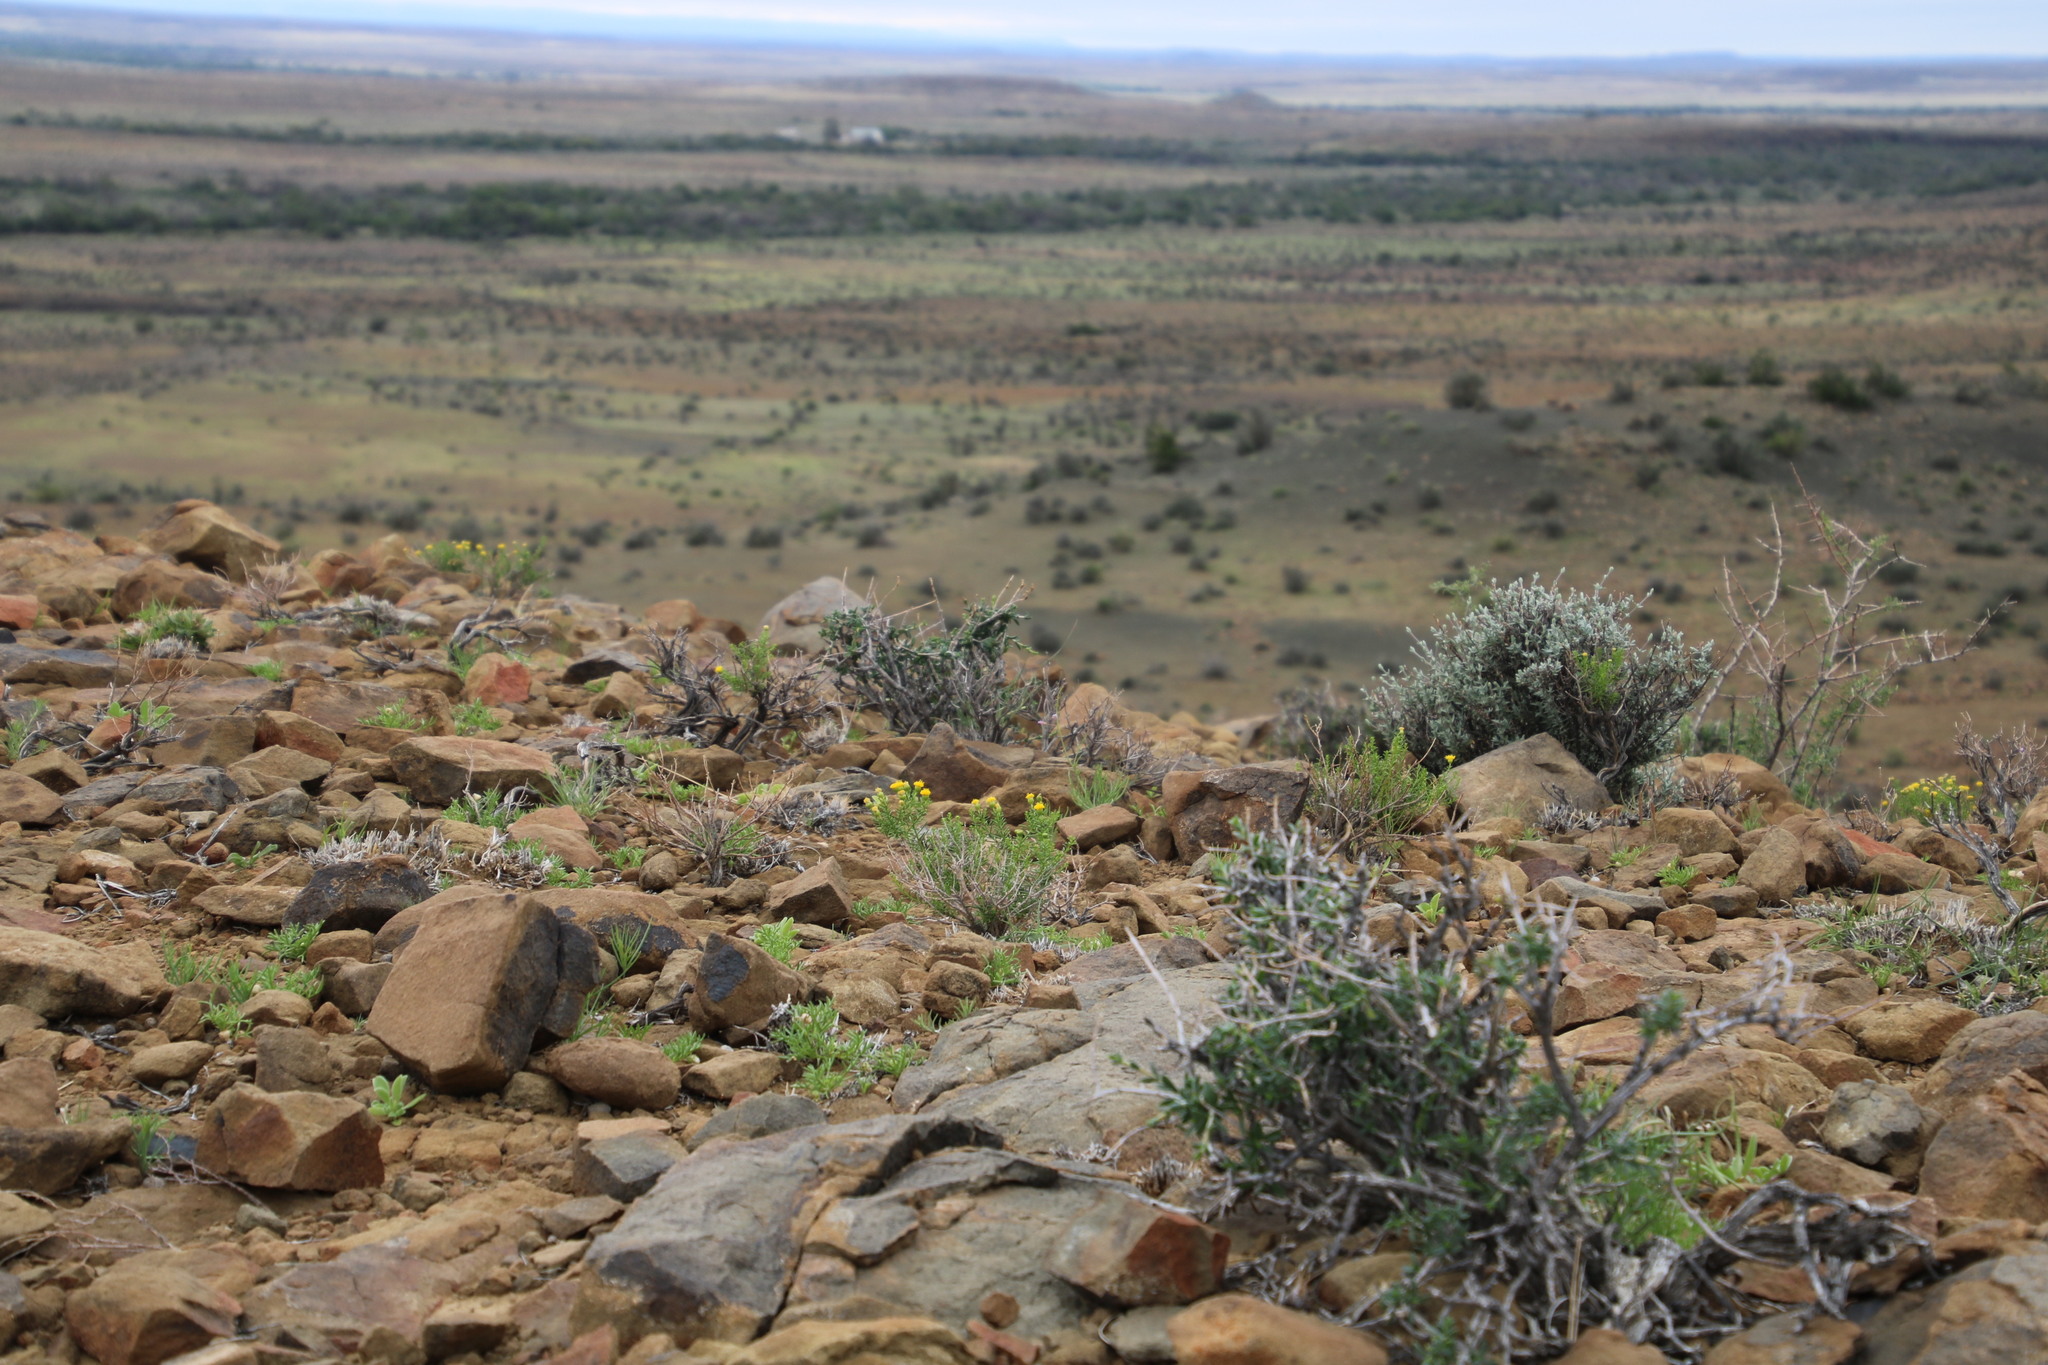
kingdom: Plantae
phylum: Tracheophyta
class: Magnoliopsida
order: Asterales
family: Asteraceae
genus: Chrysocoma
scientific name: Chrysocoma ciliata
